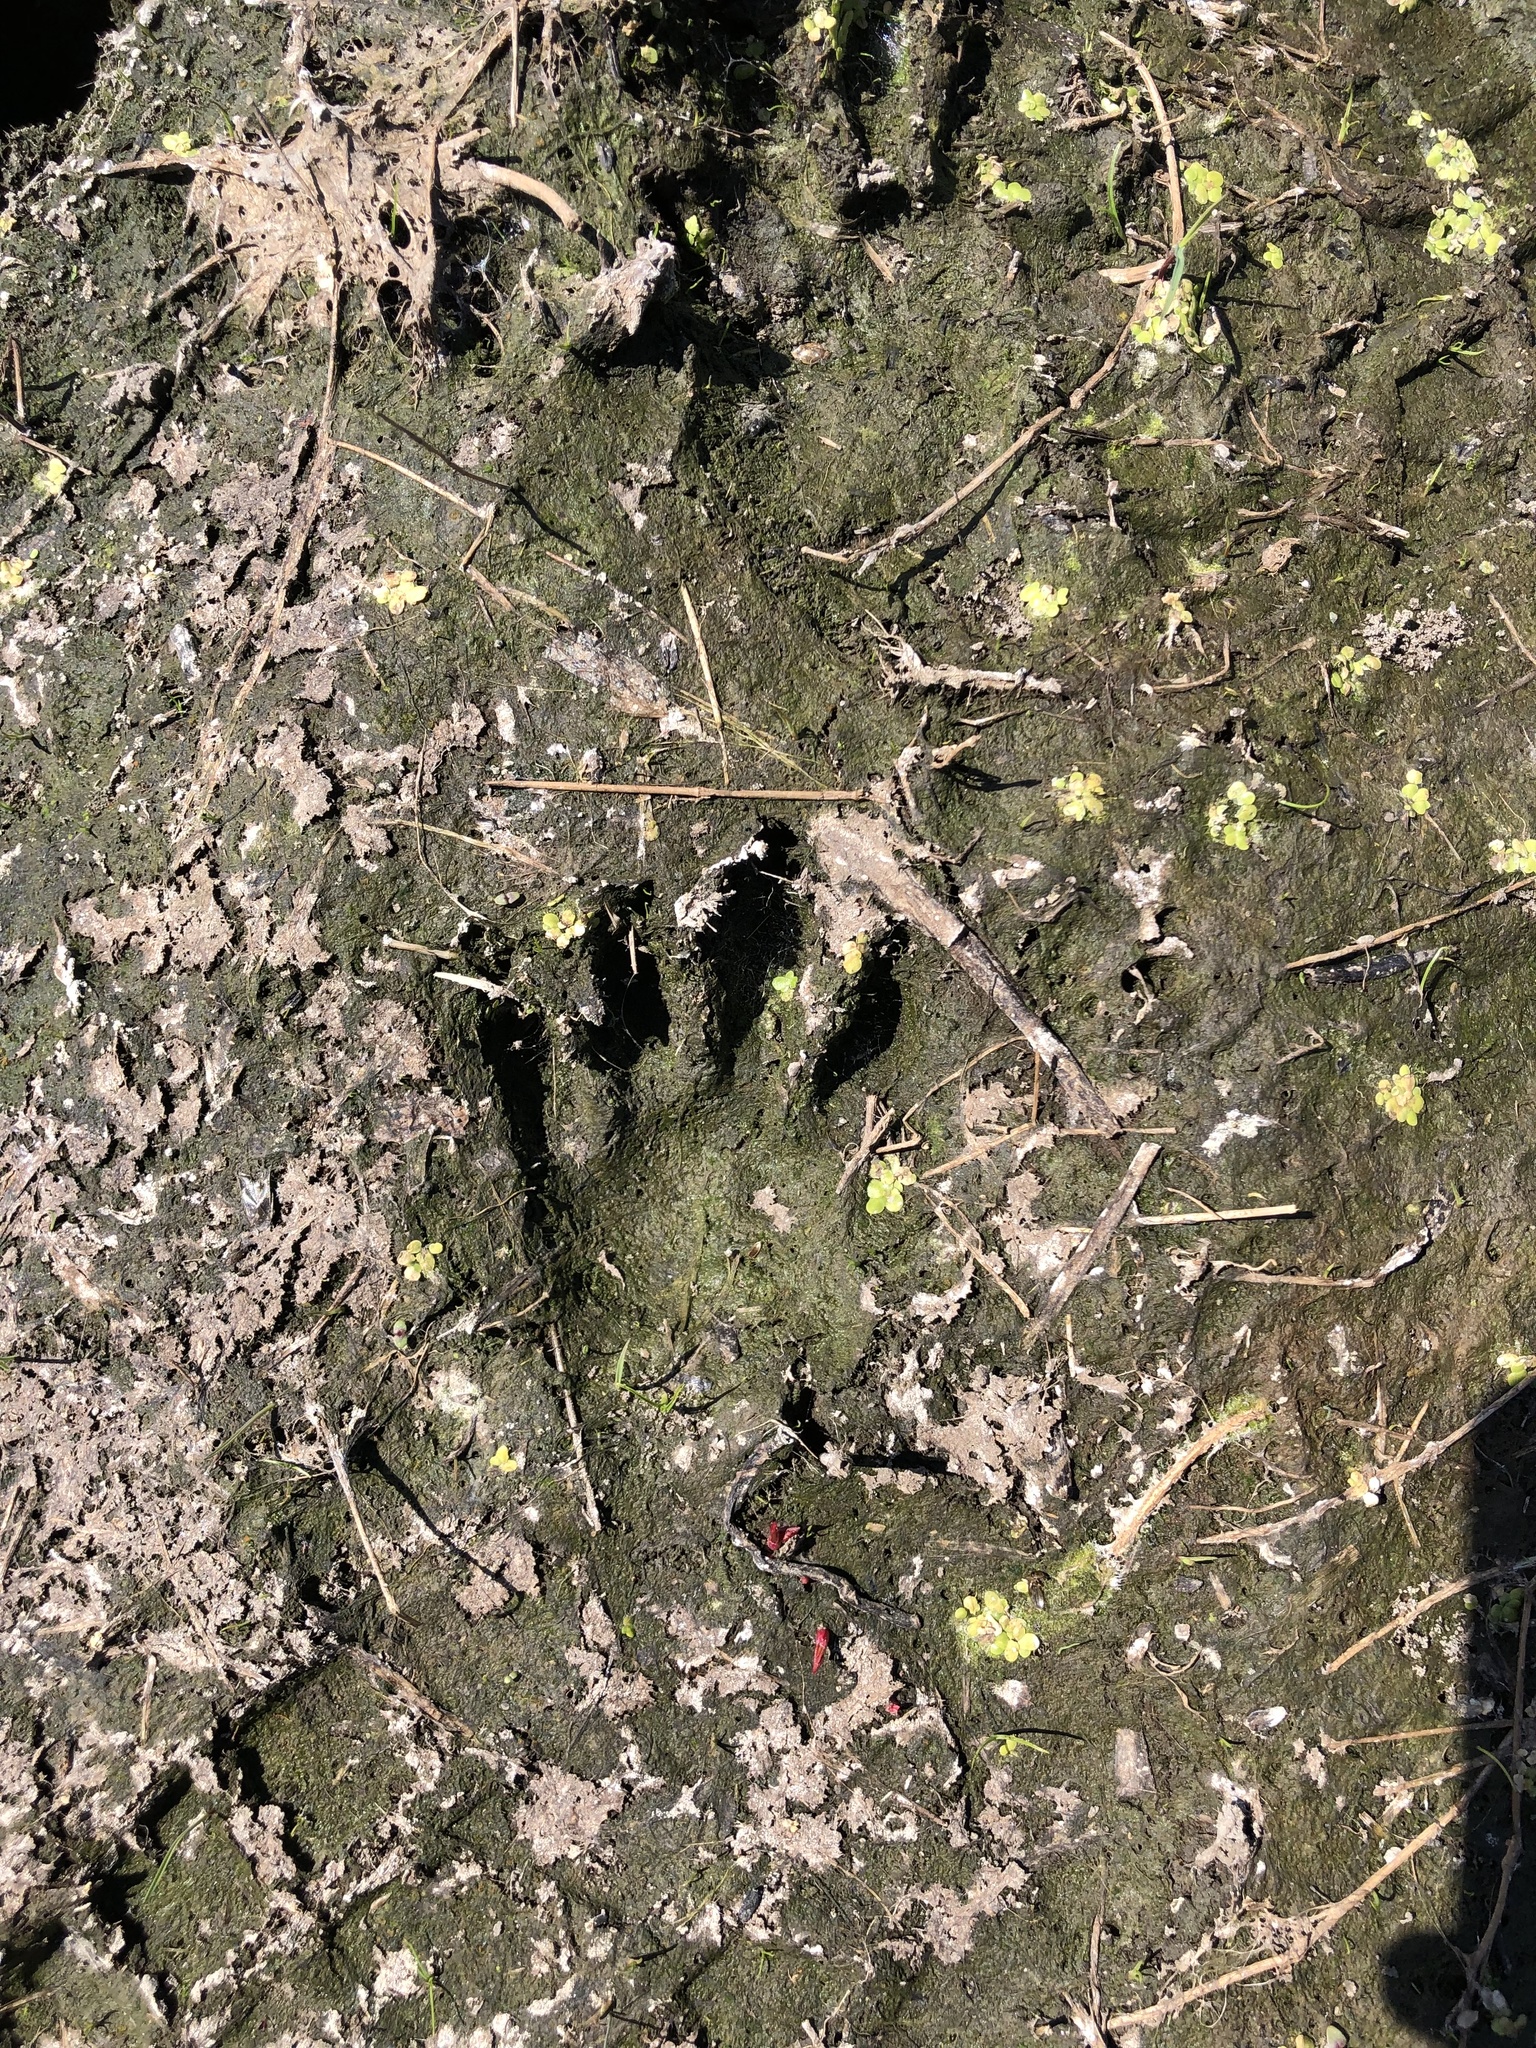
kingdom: Animalia
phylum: Chordata
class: Mammalia
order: Carnivora
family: Procyonidae
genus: Procyon
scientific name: Procyon lotor
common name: Raccoon
